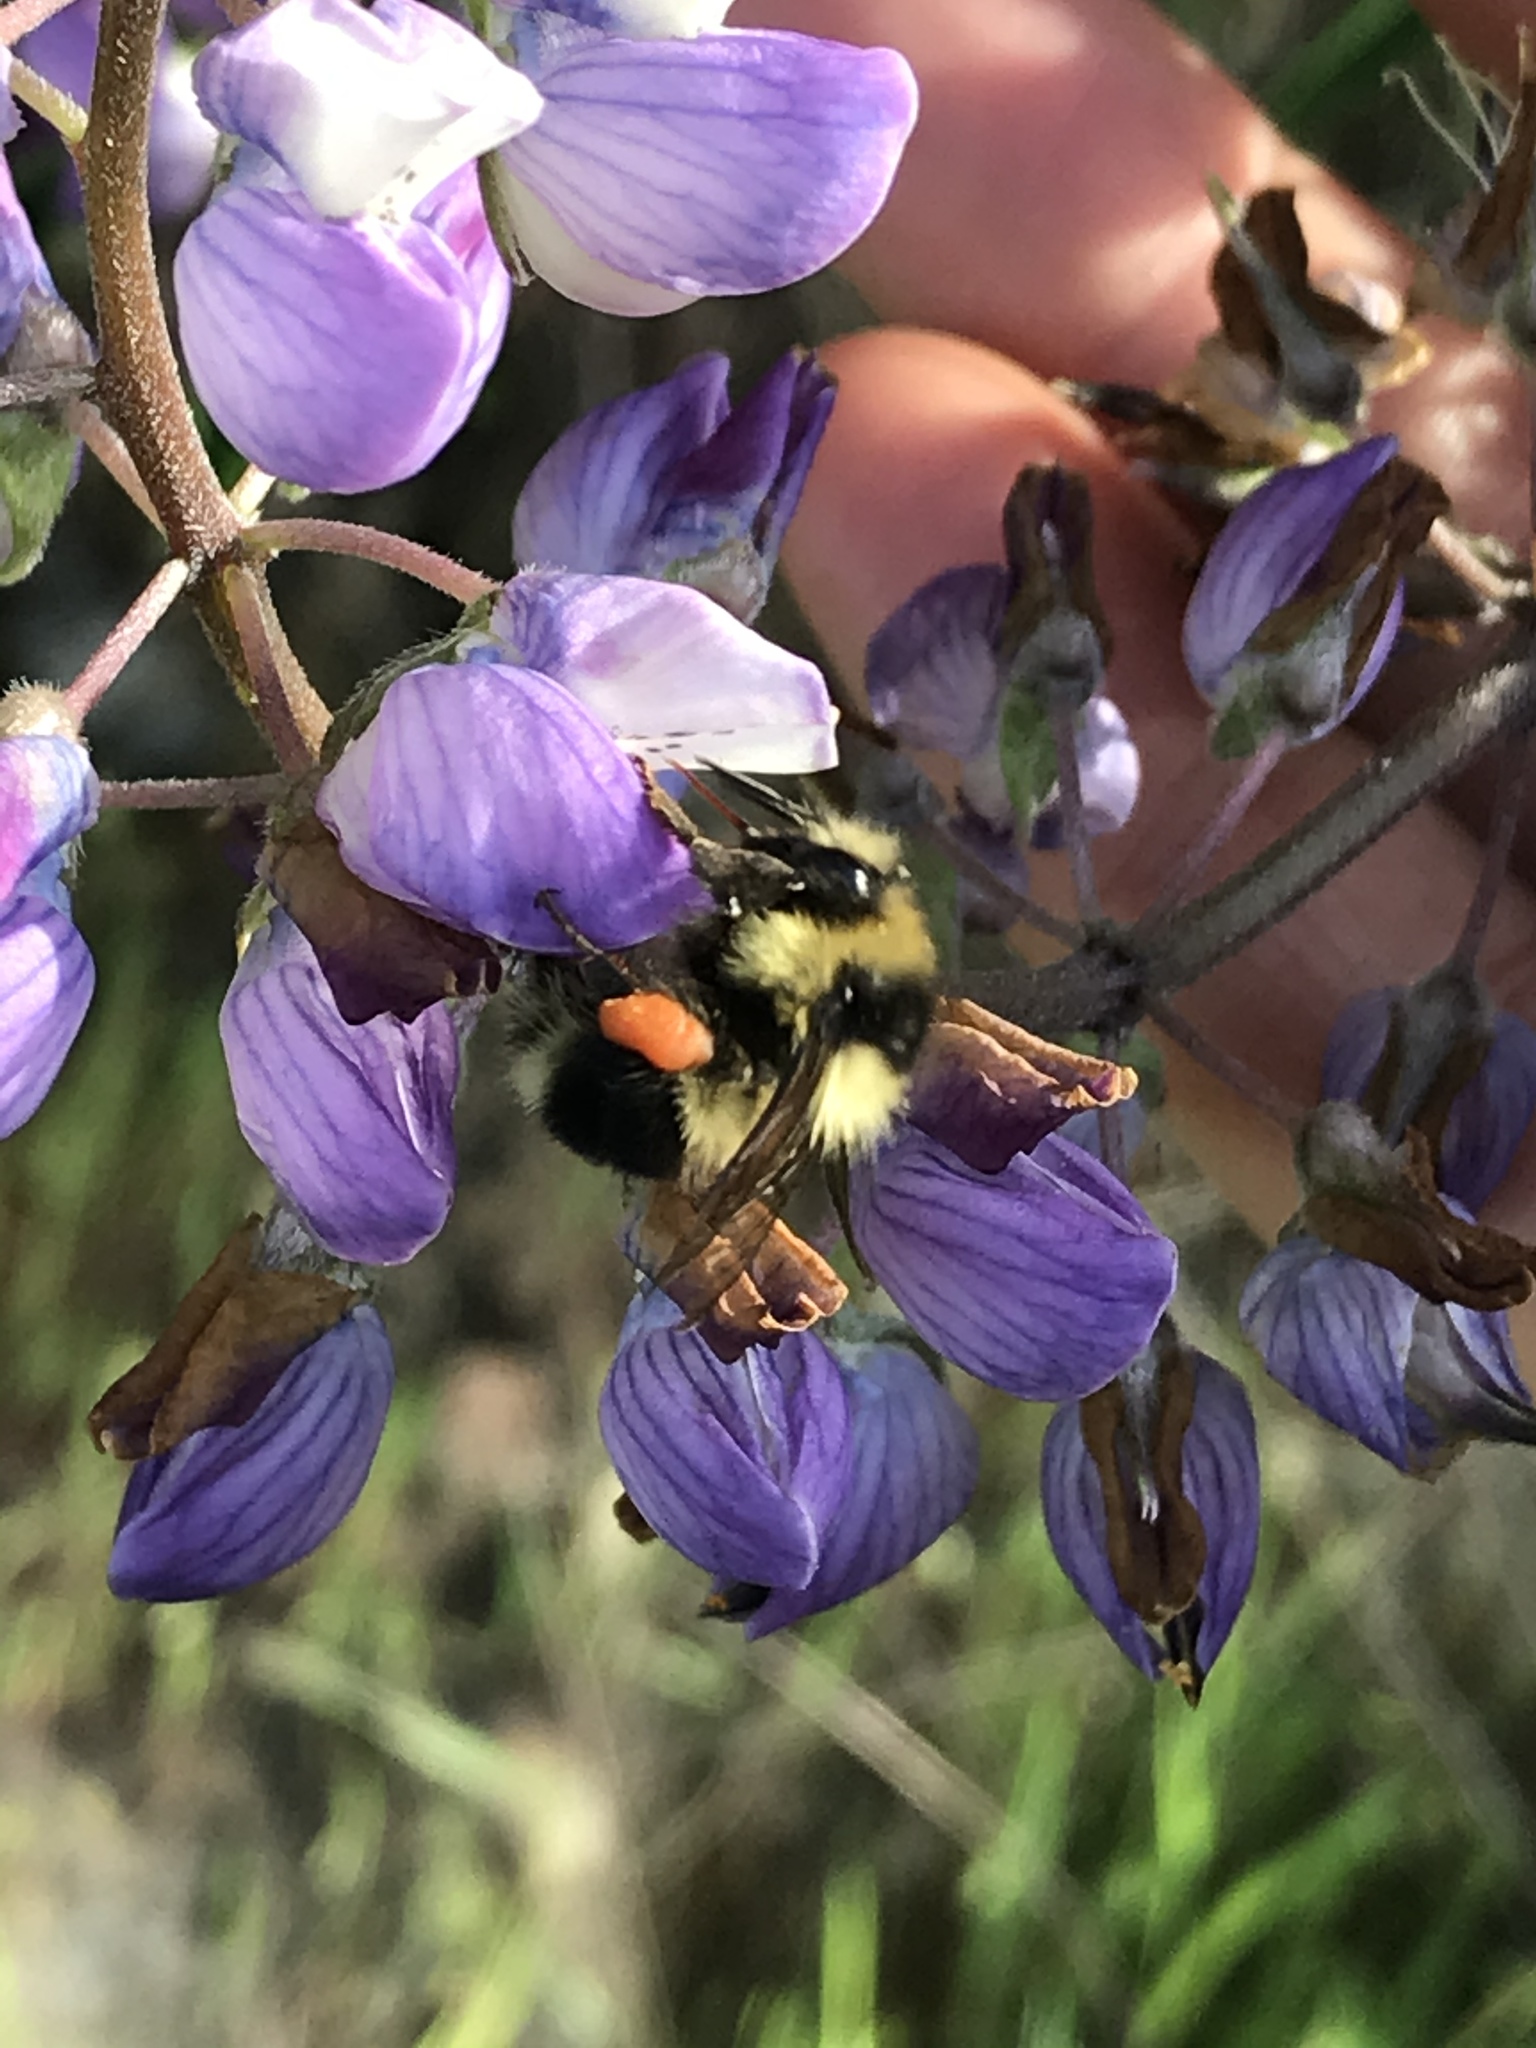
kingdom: Animalia
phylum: Arthropoda
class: Insecta
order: Hymenoptera
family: Apidae
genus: Bombus
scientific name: Bombus melanopygus
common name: Black tail bumble bee
